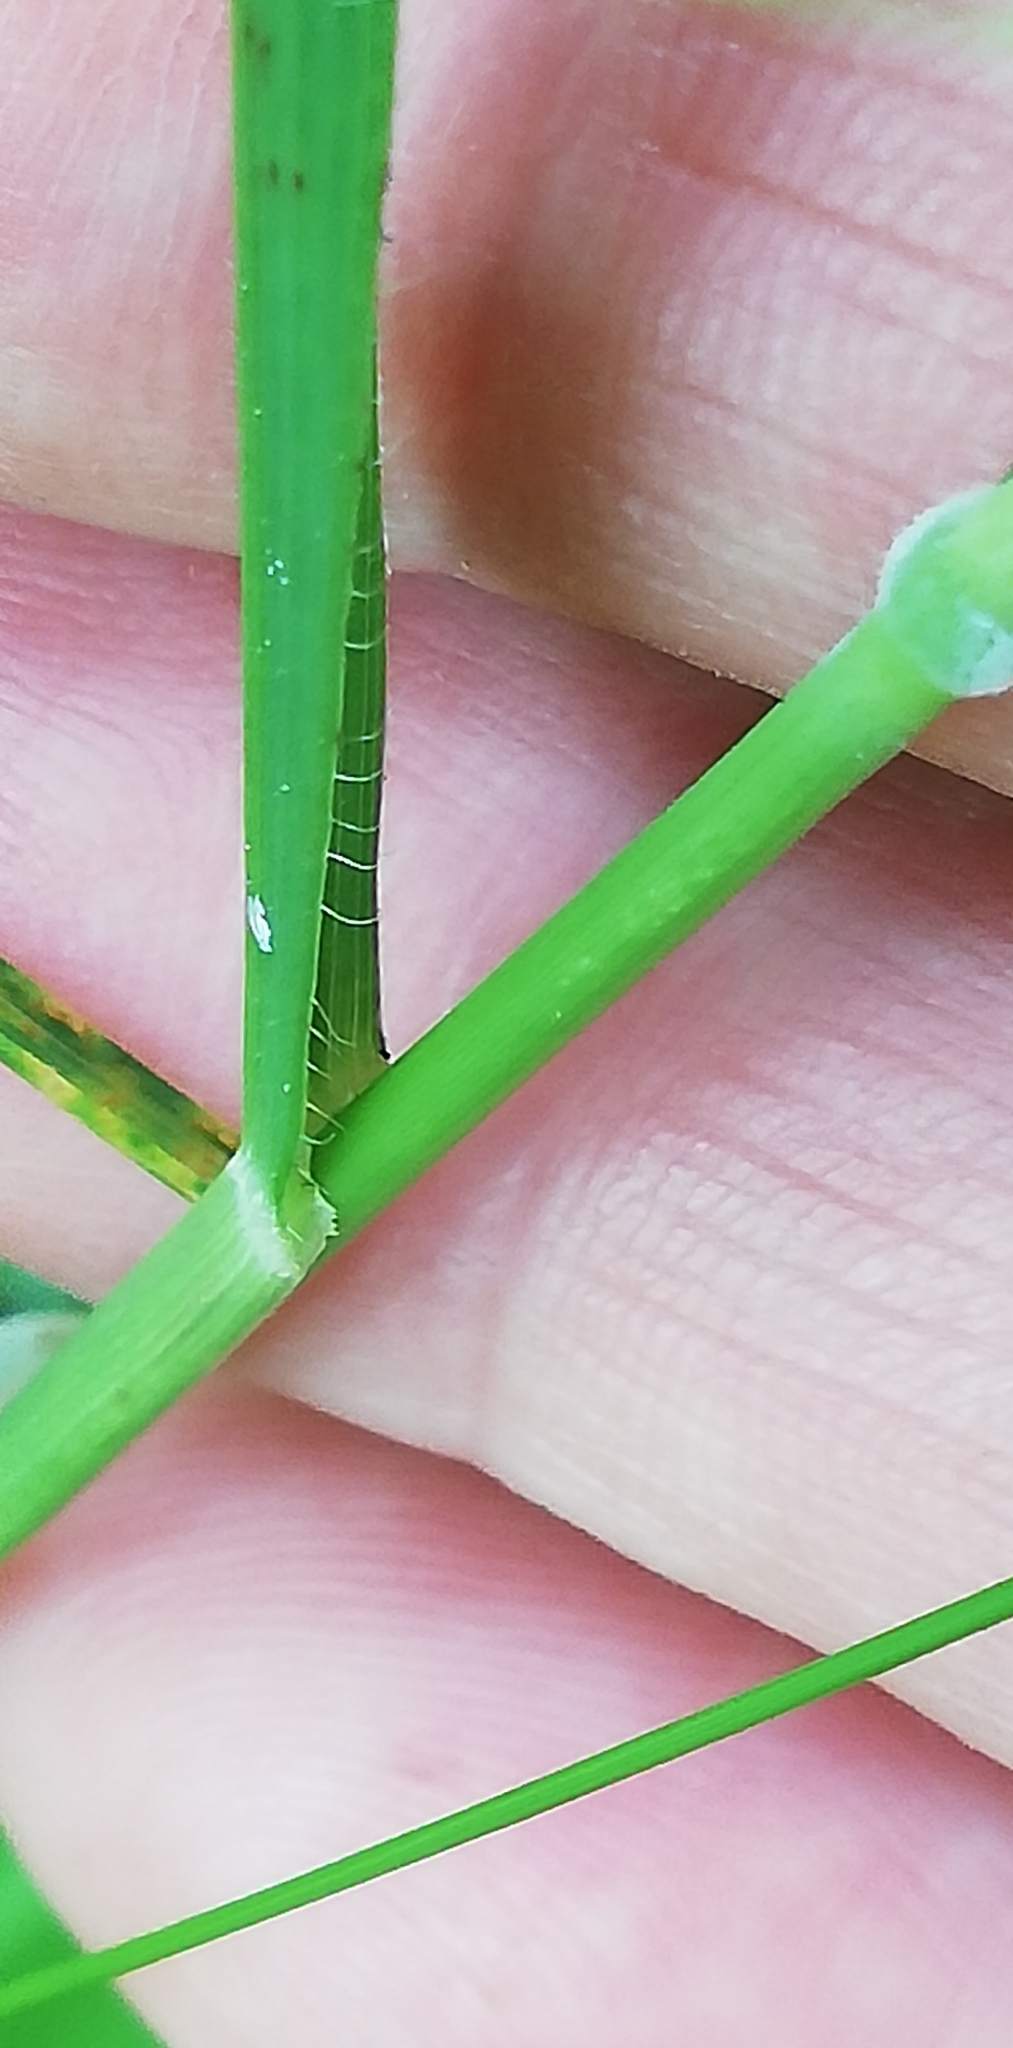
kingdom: Plantae
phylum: Tracheophyta
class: Liliopsida
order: Poales
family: Poaceae
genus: Brachypodium
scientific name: Brachypodium pinnatum
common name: Tor grass
